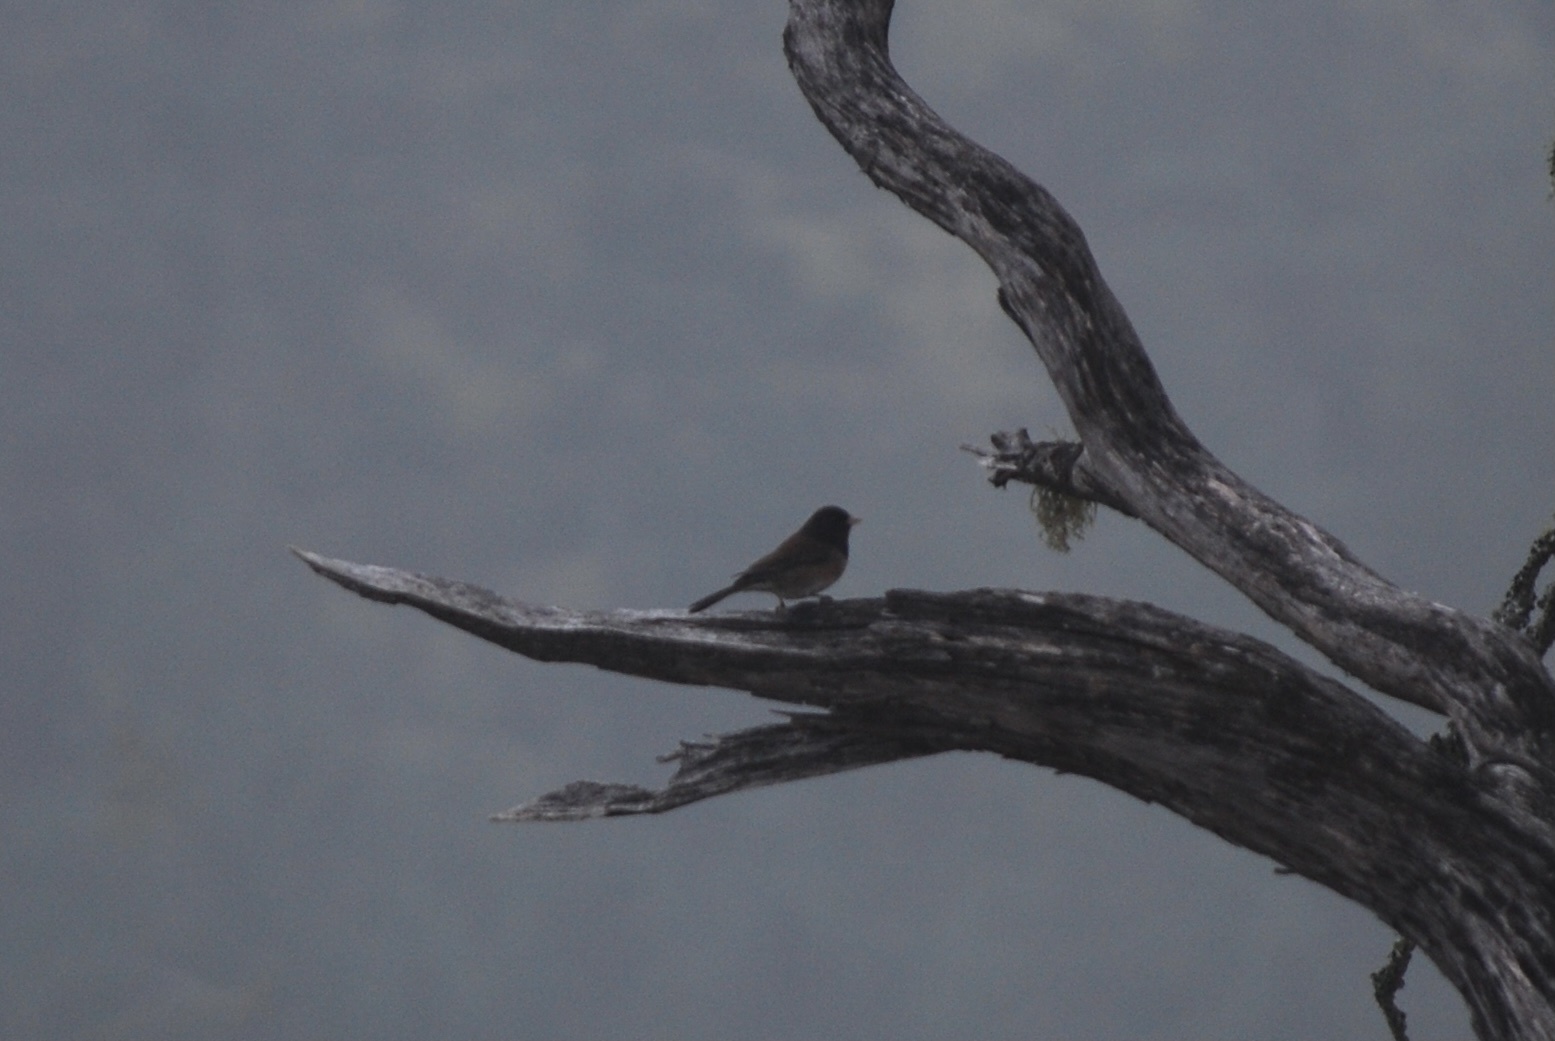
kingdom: Animalia
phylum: Chordata
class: Aves
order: Passeriformes
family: Passerellidae
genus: Junco
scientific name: Junco hyemalis
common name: Dark-eyed junco
